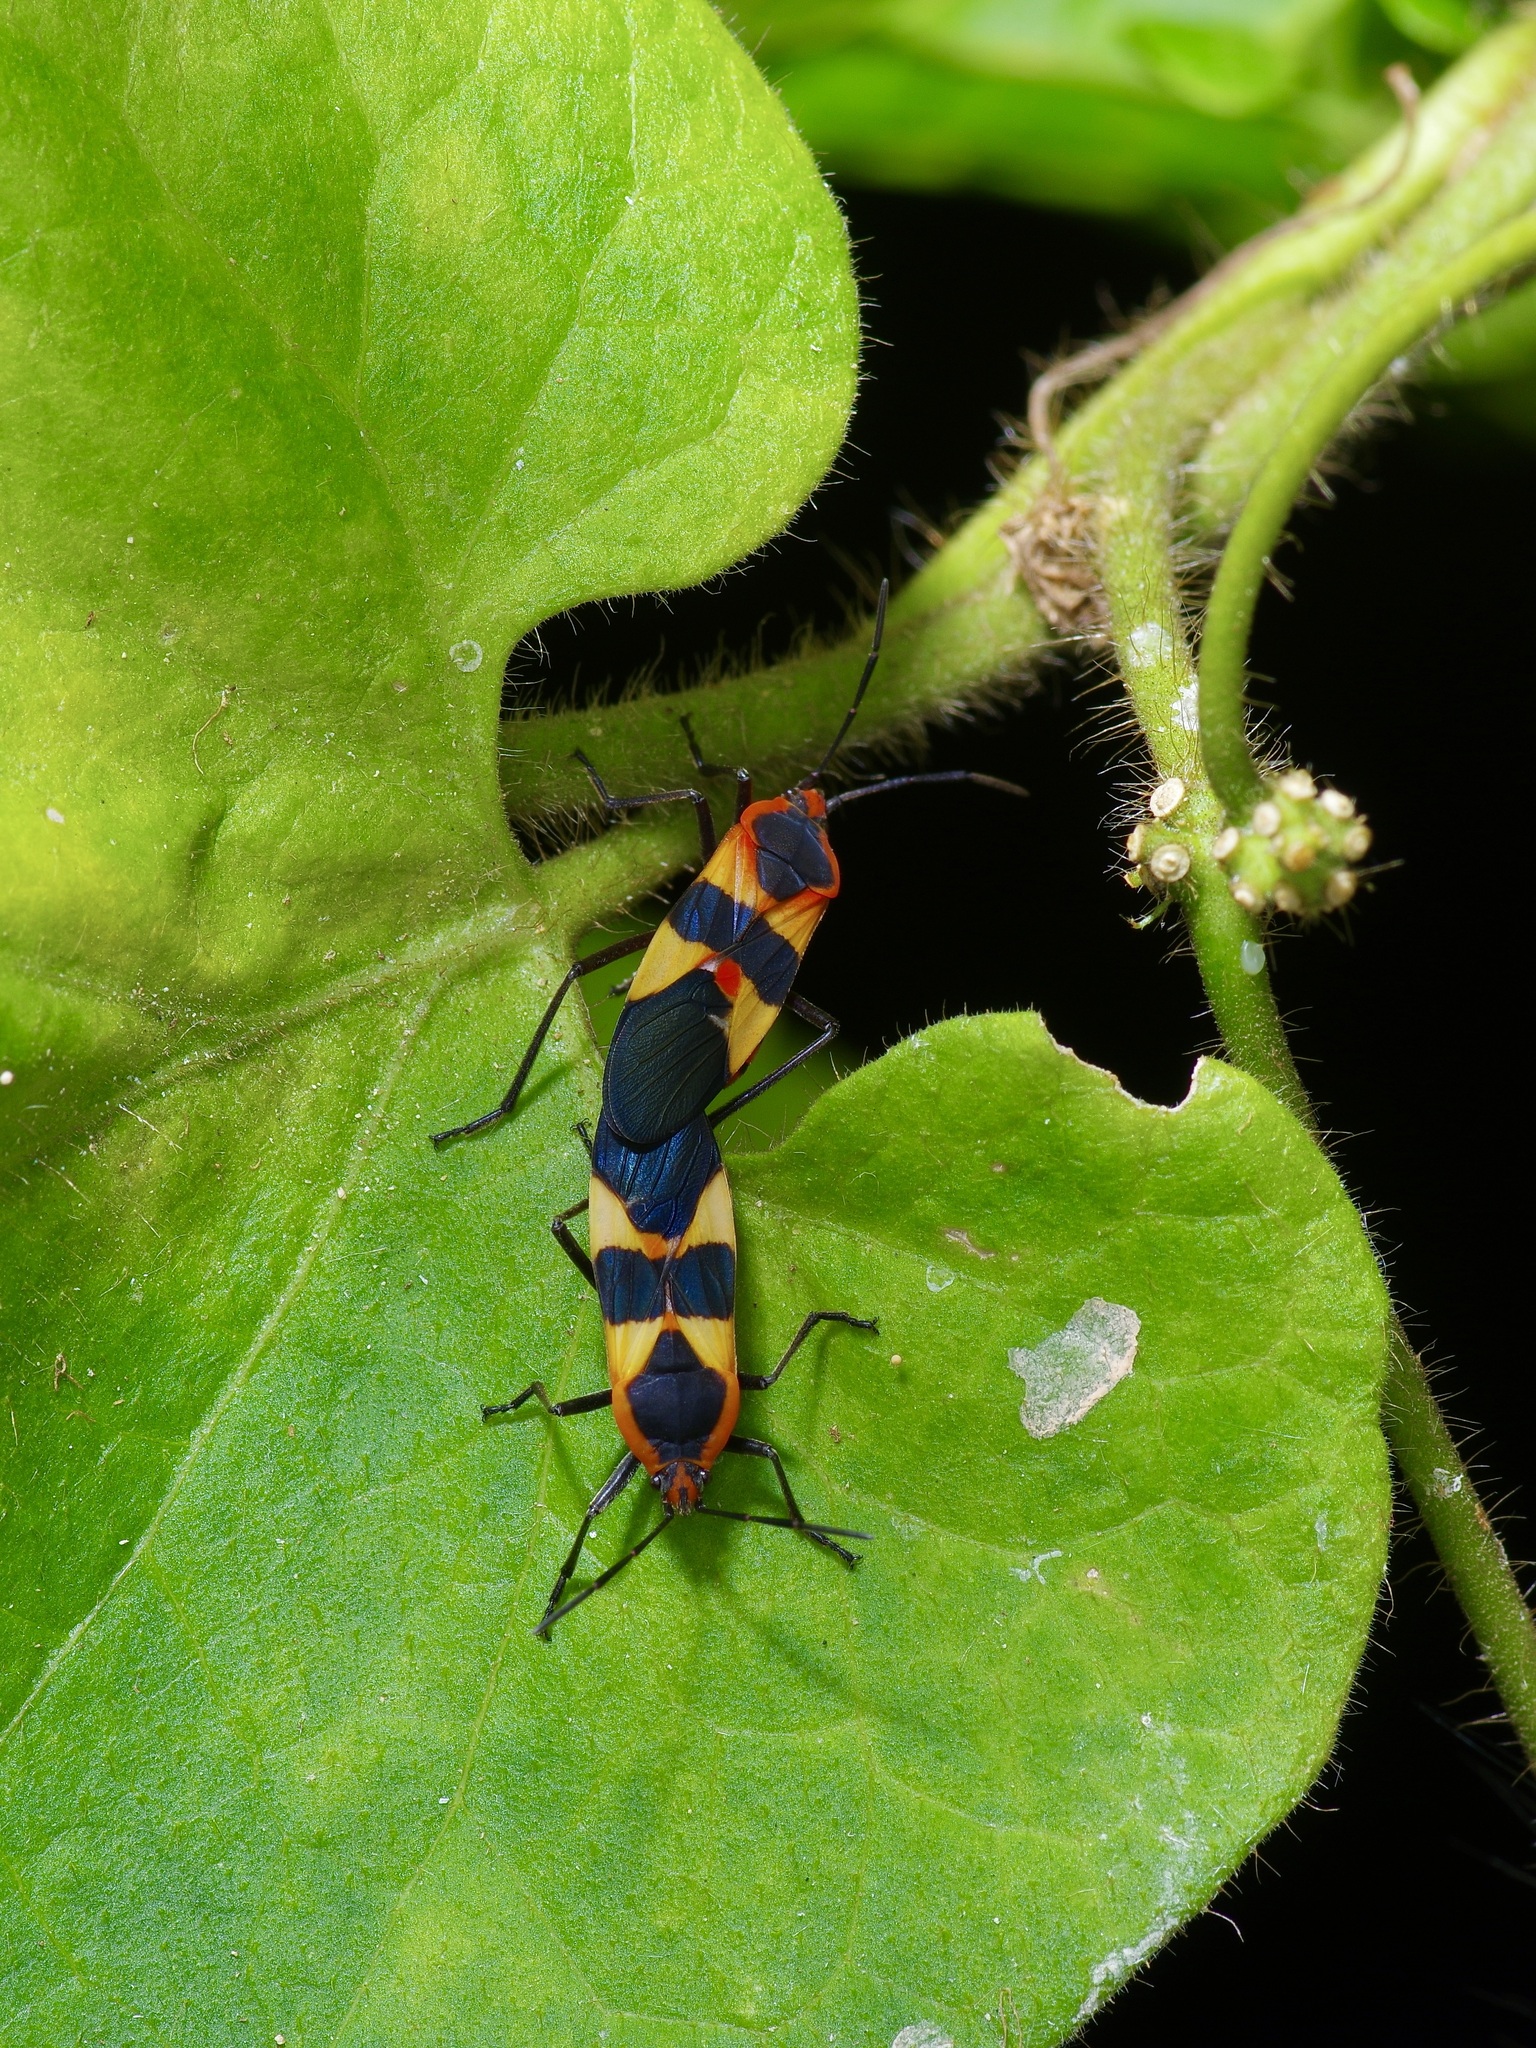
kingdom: Animalia
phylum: Arthropoda
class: Insecta
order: Hemiptera
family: Lygaeidae
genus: Oncopeltus
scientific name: Oncopeltus fasciatus
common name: Large milkweed bug
